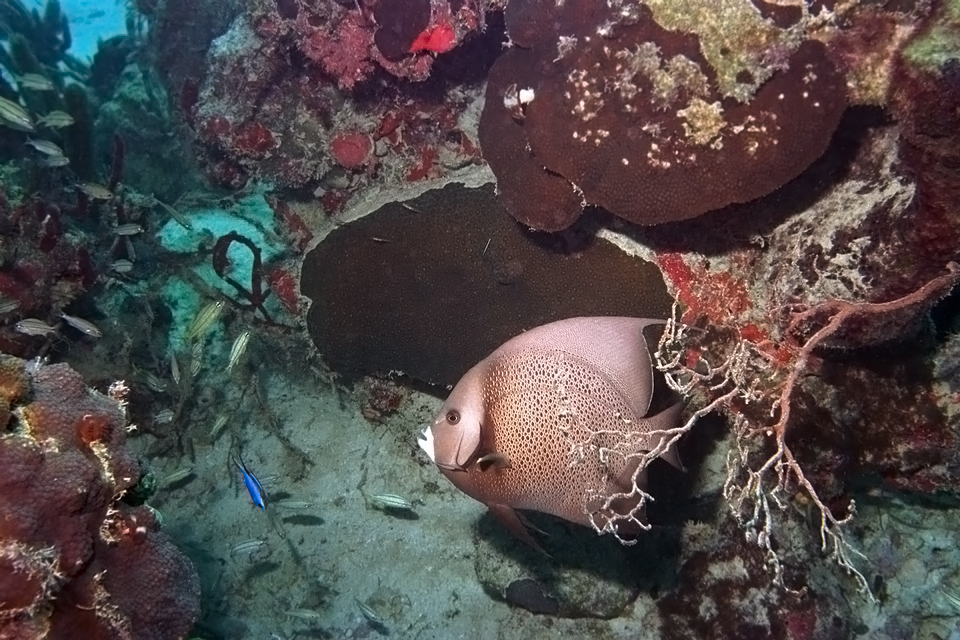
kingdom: Animalia
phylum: Chordata
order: Perciformes
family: Pomacanthidae
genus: Pomacanthus
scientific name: Pomacanthus arcuatus
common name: Gray angelfish
